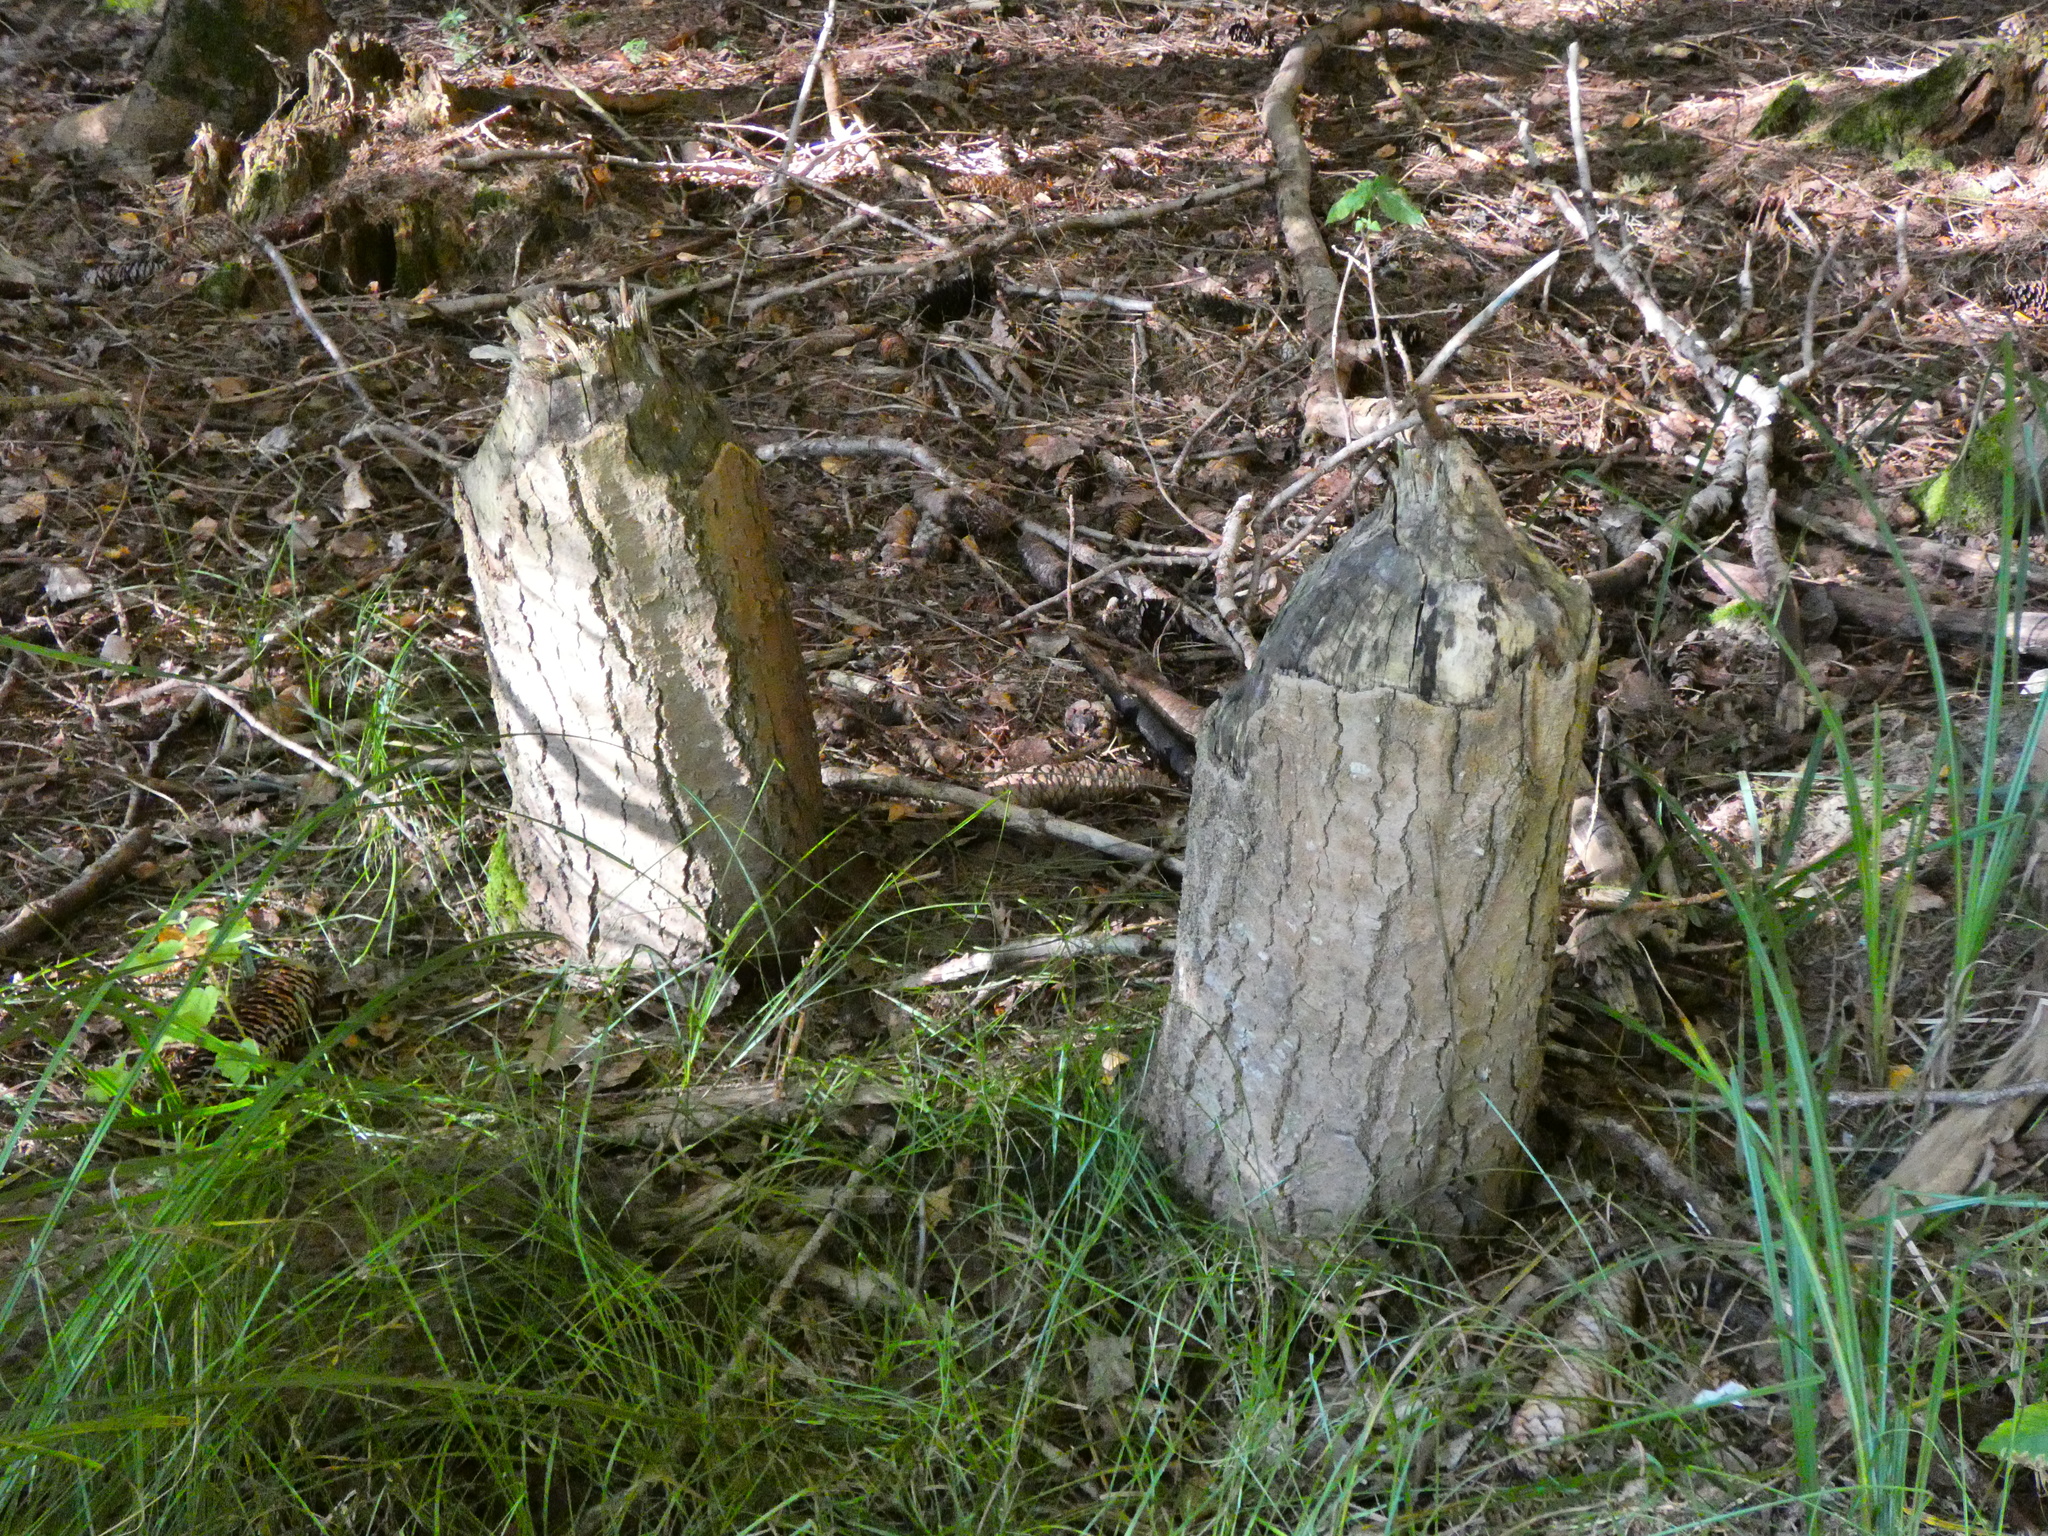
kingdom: Animalia
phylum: Chordata
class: Mammalia
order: Rodentia
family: Castoridae
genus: Castor
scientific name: Castor fiber
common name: Eurasian beaver
